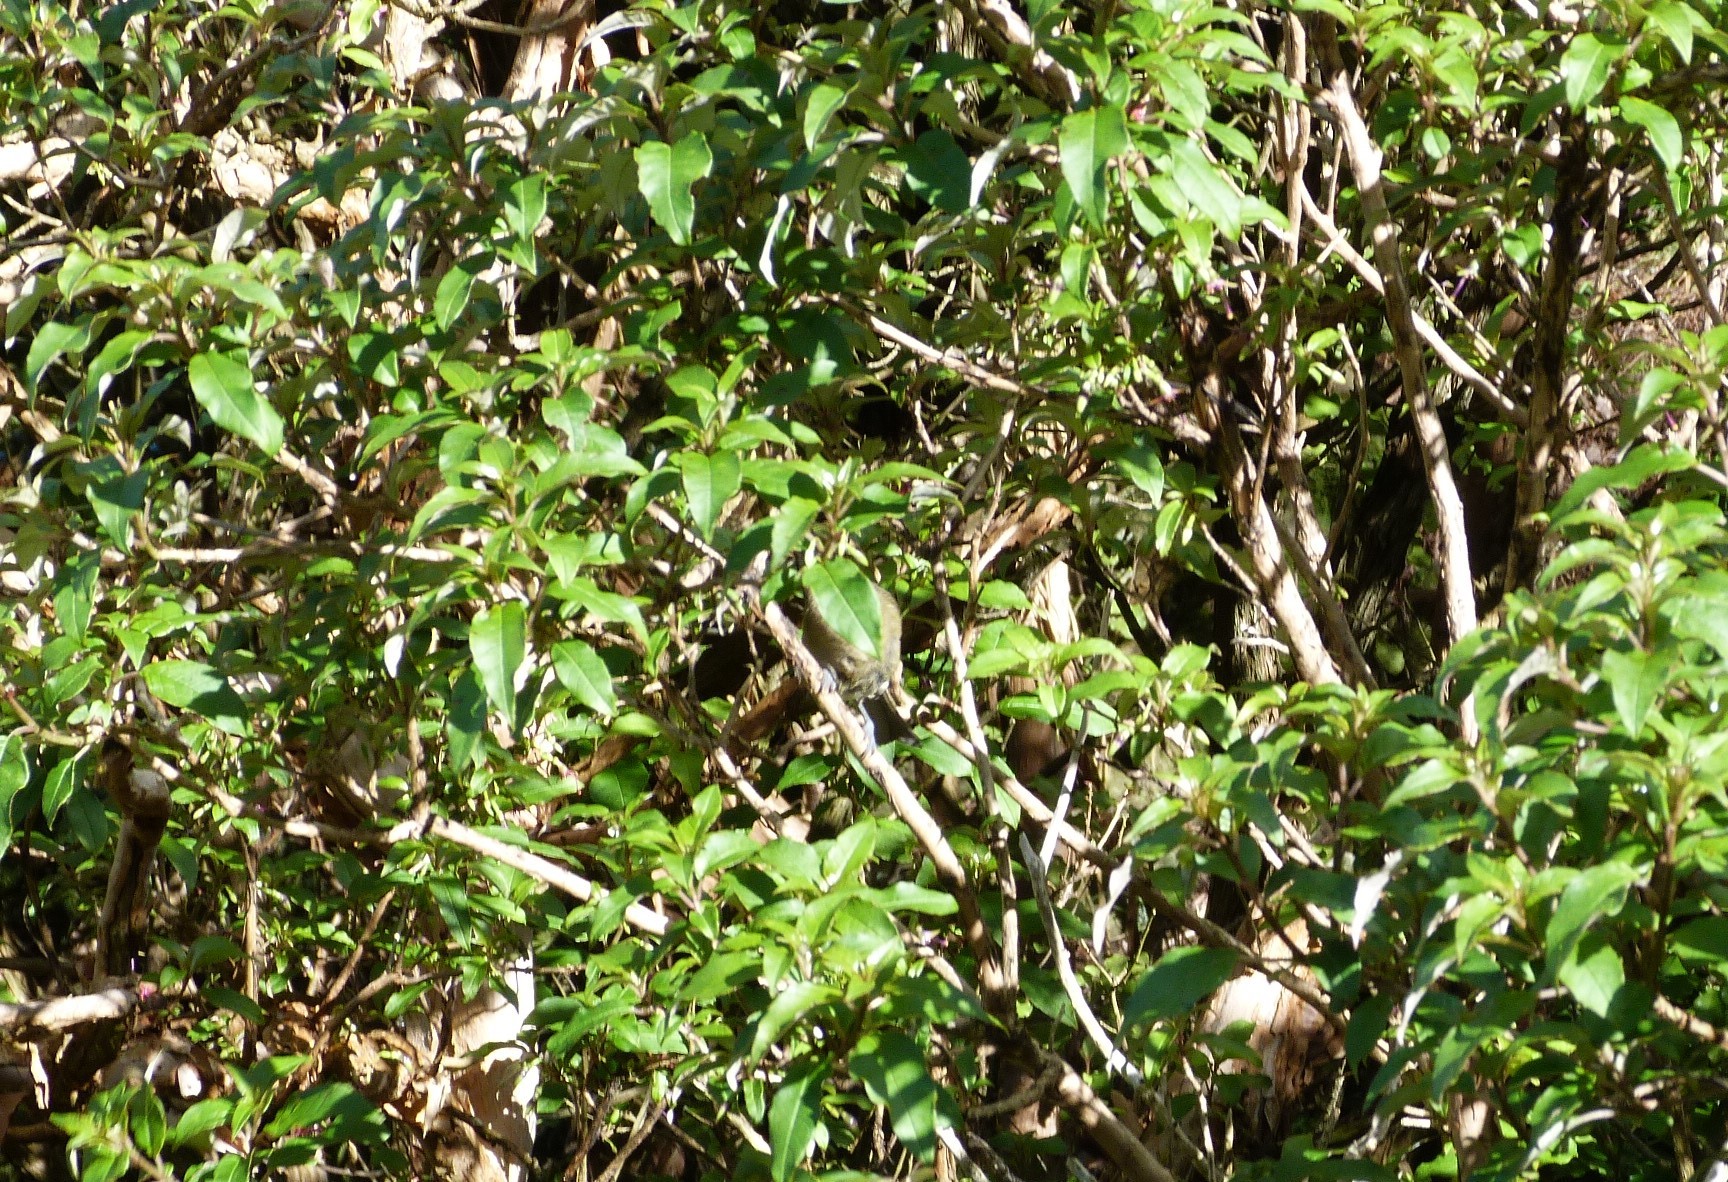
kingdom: Animalia
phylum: Chordata
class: Aves
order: Passeriformes
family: Meliphagidae
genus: Anthornis
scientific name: Anthornis melanura
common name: New zealand bellbird
